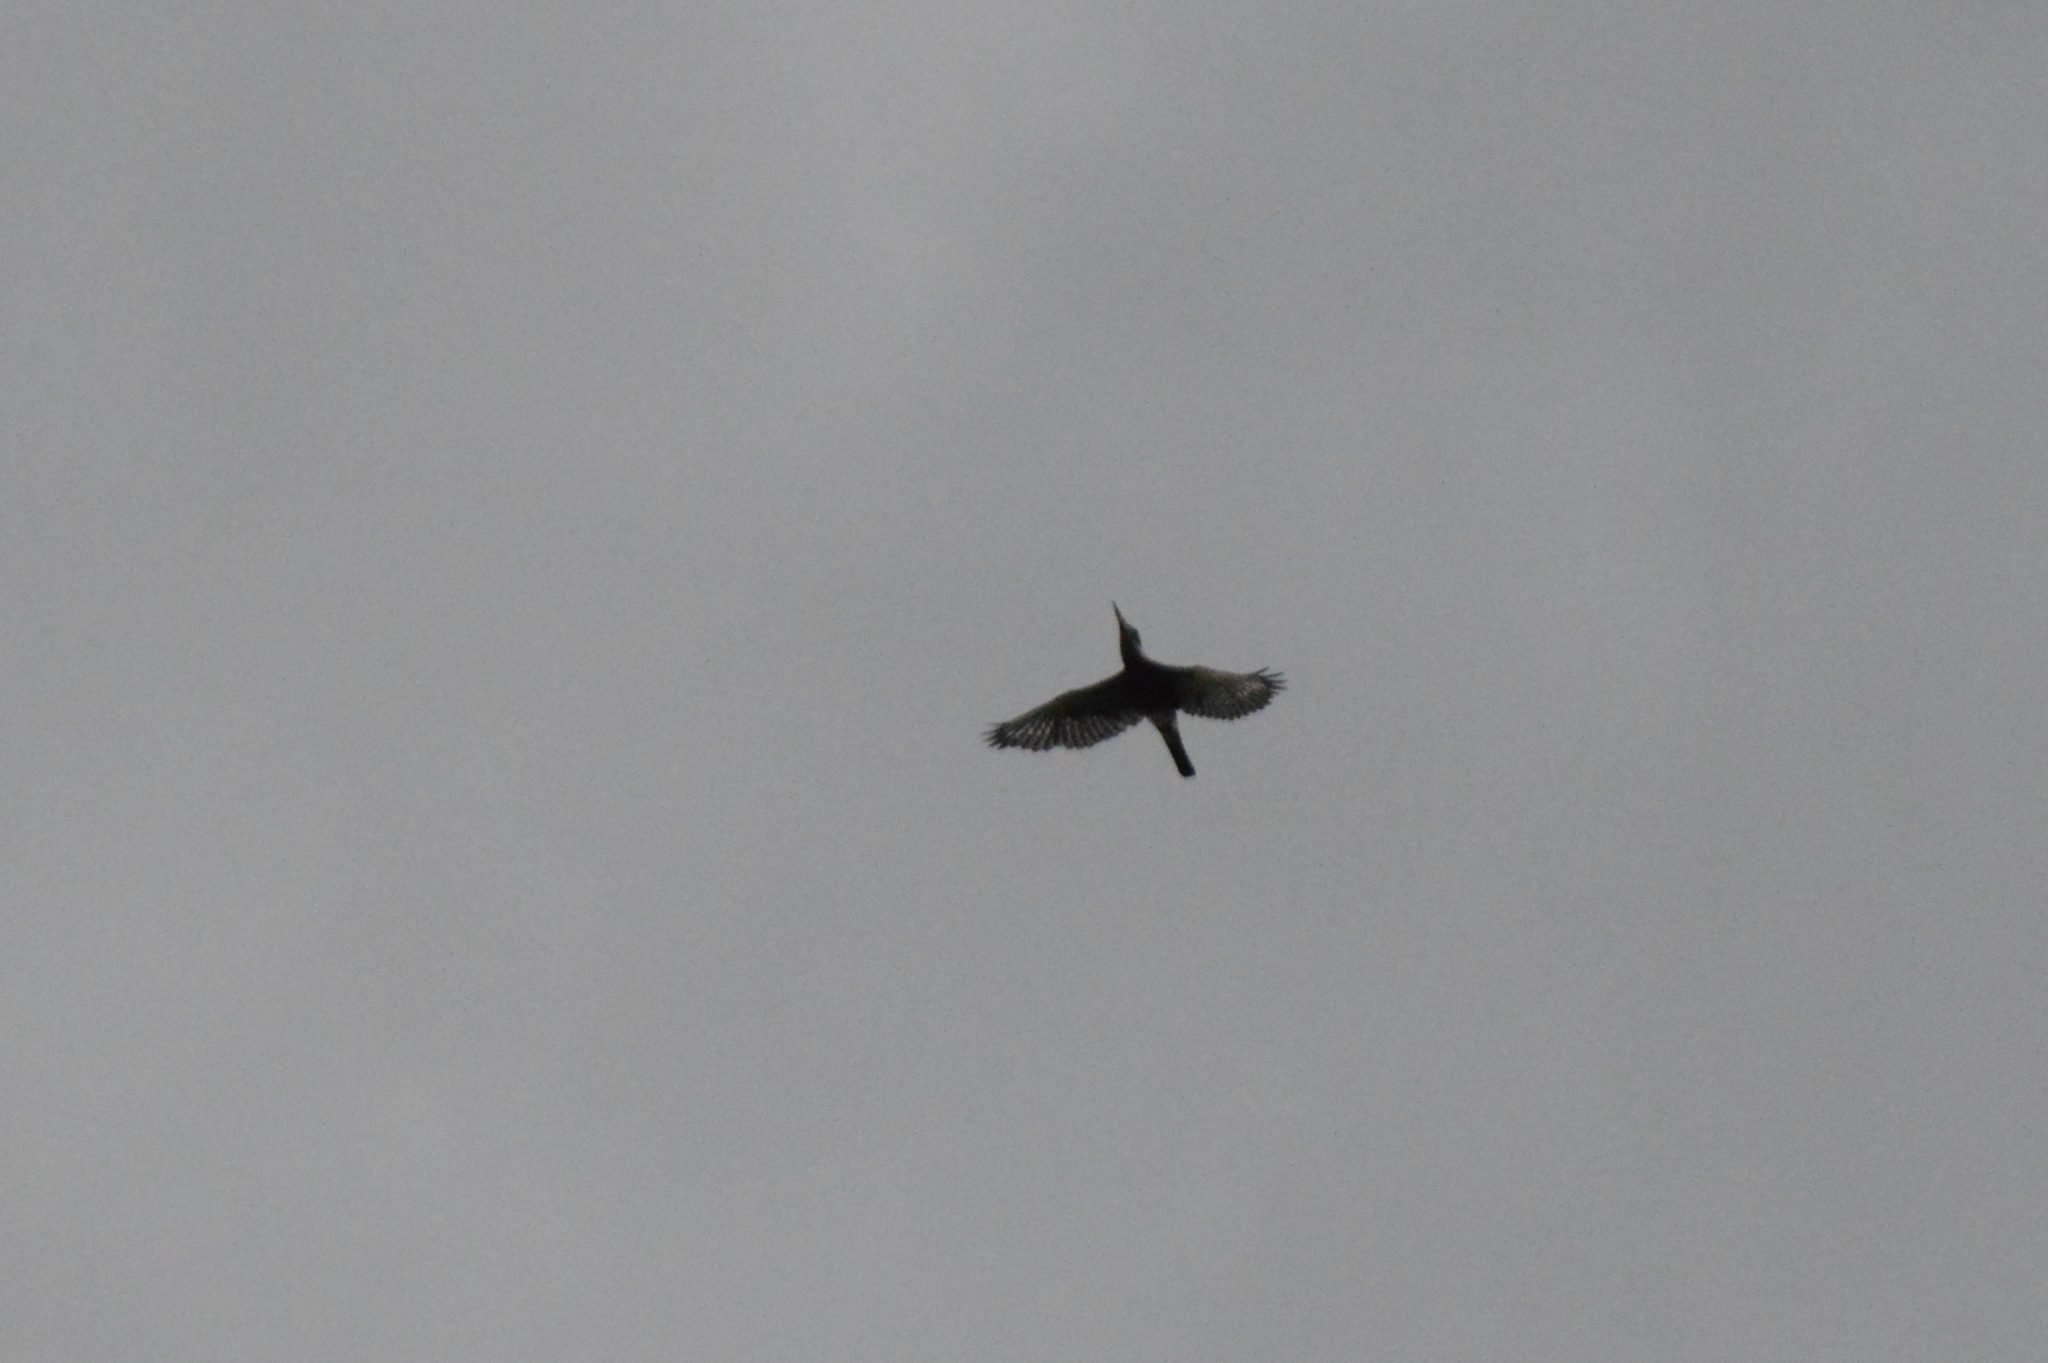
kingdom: Animalia
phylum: Chordata
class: Aves
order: Coraciiformes
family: Alcedinidae
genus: Megaceryle
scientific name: Megaceryle torquata
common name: Ringed kingfisher
